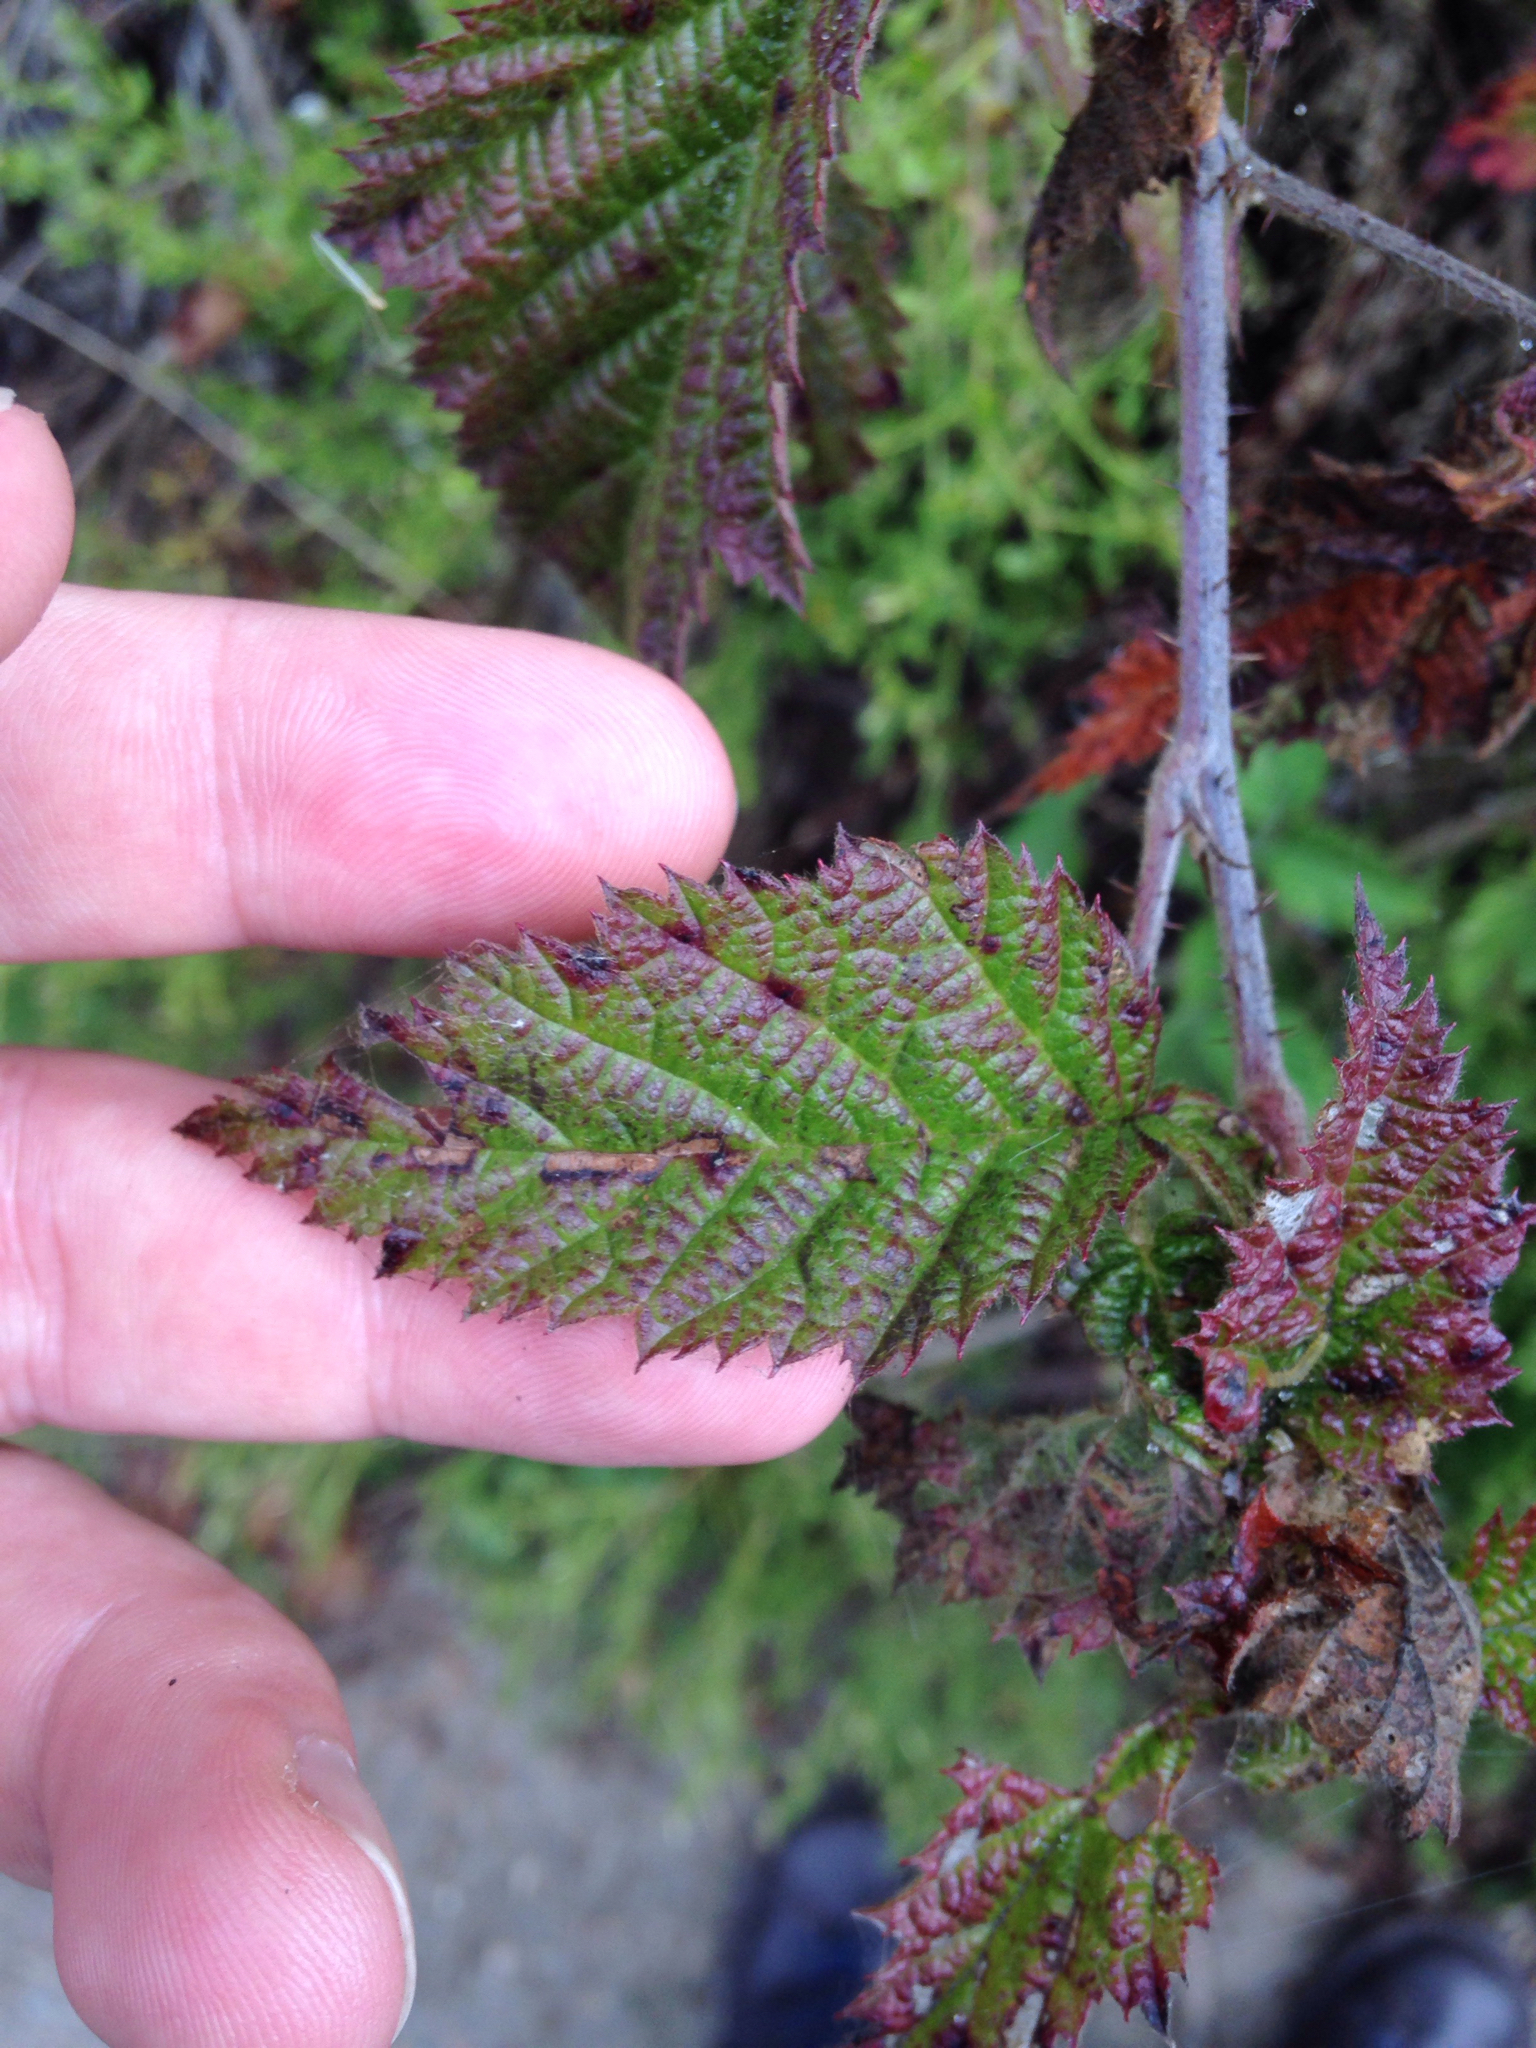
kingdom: Plantae
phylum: Tracheophyta
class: Magnoliopsida
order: Rosales
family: Rosaceae
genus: Rubus
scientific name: Rubus ursinus
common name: Pacific blackberry
